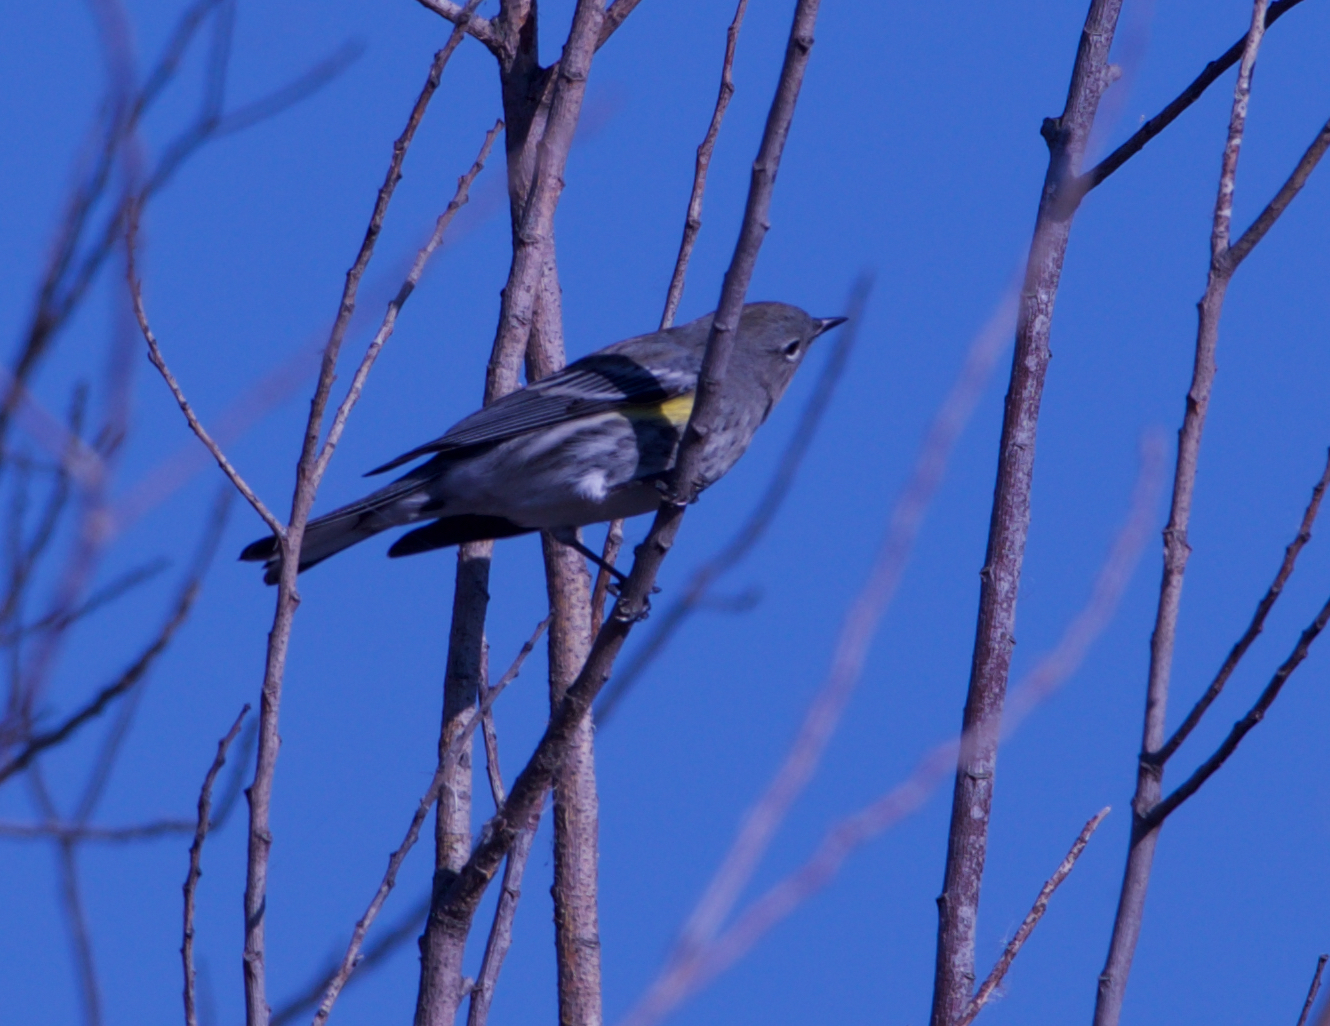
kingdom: Animalia
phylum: Chordata
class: Aves
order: Passeriformes
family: Parulidae
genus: Setophaga
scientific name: Setophaga coronata
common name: Myrtle warbler
